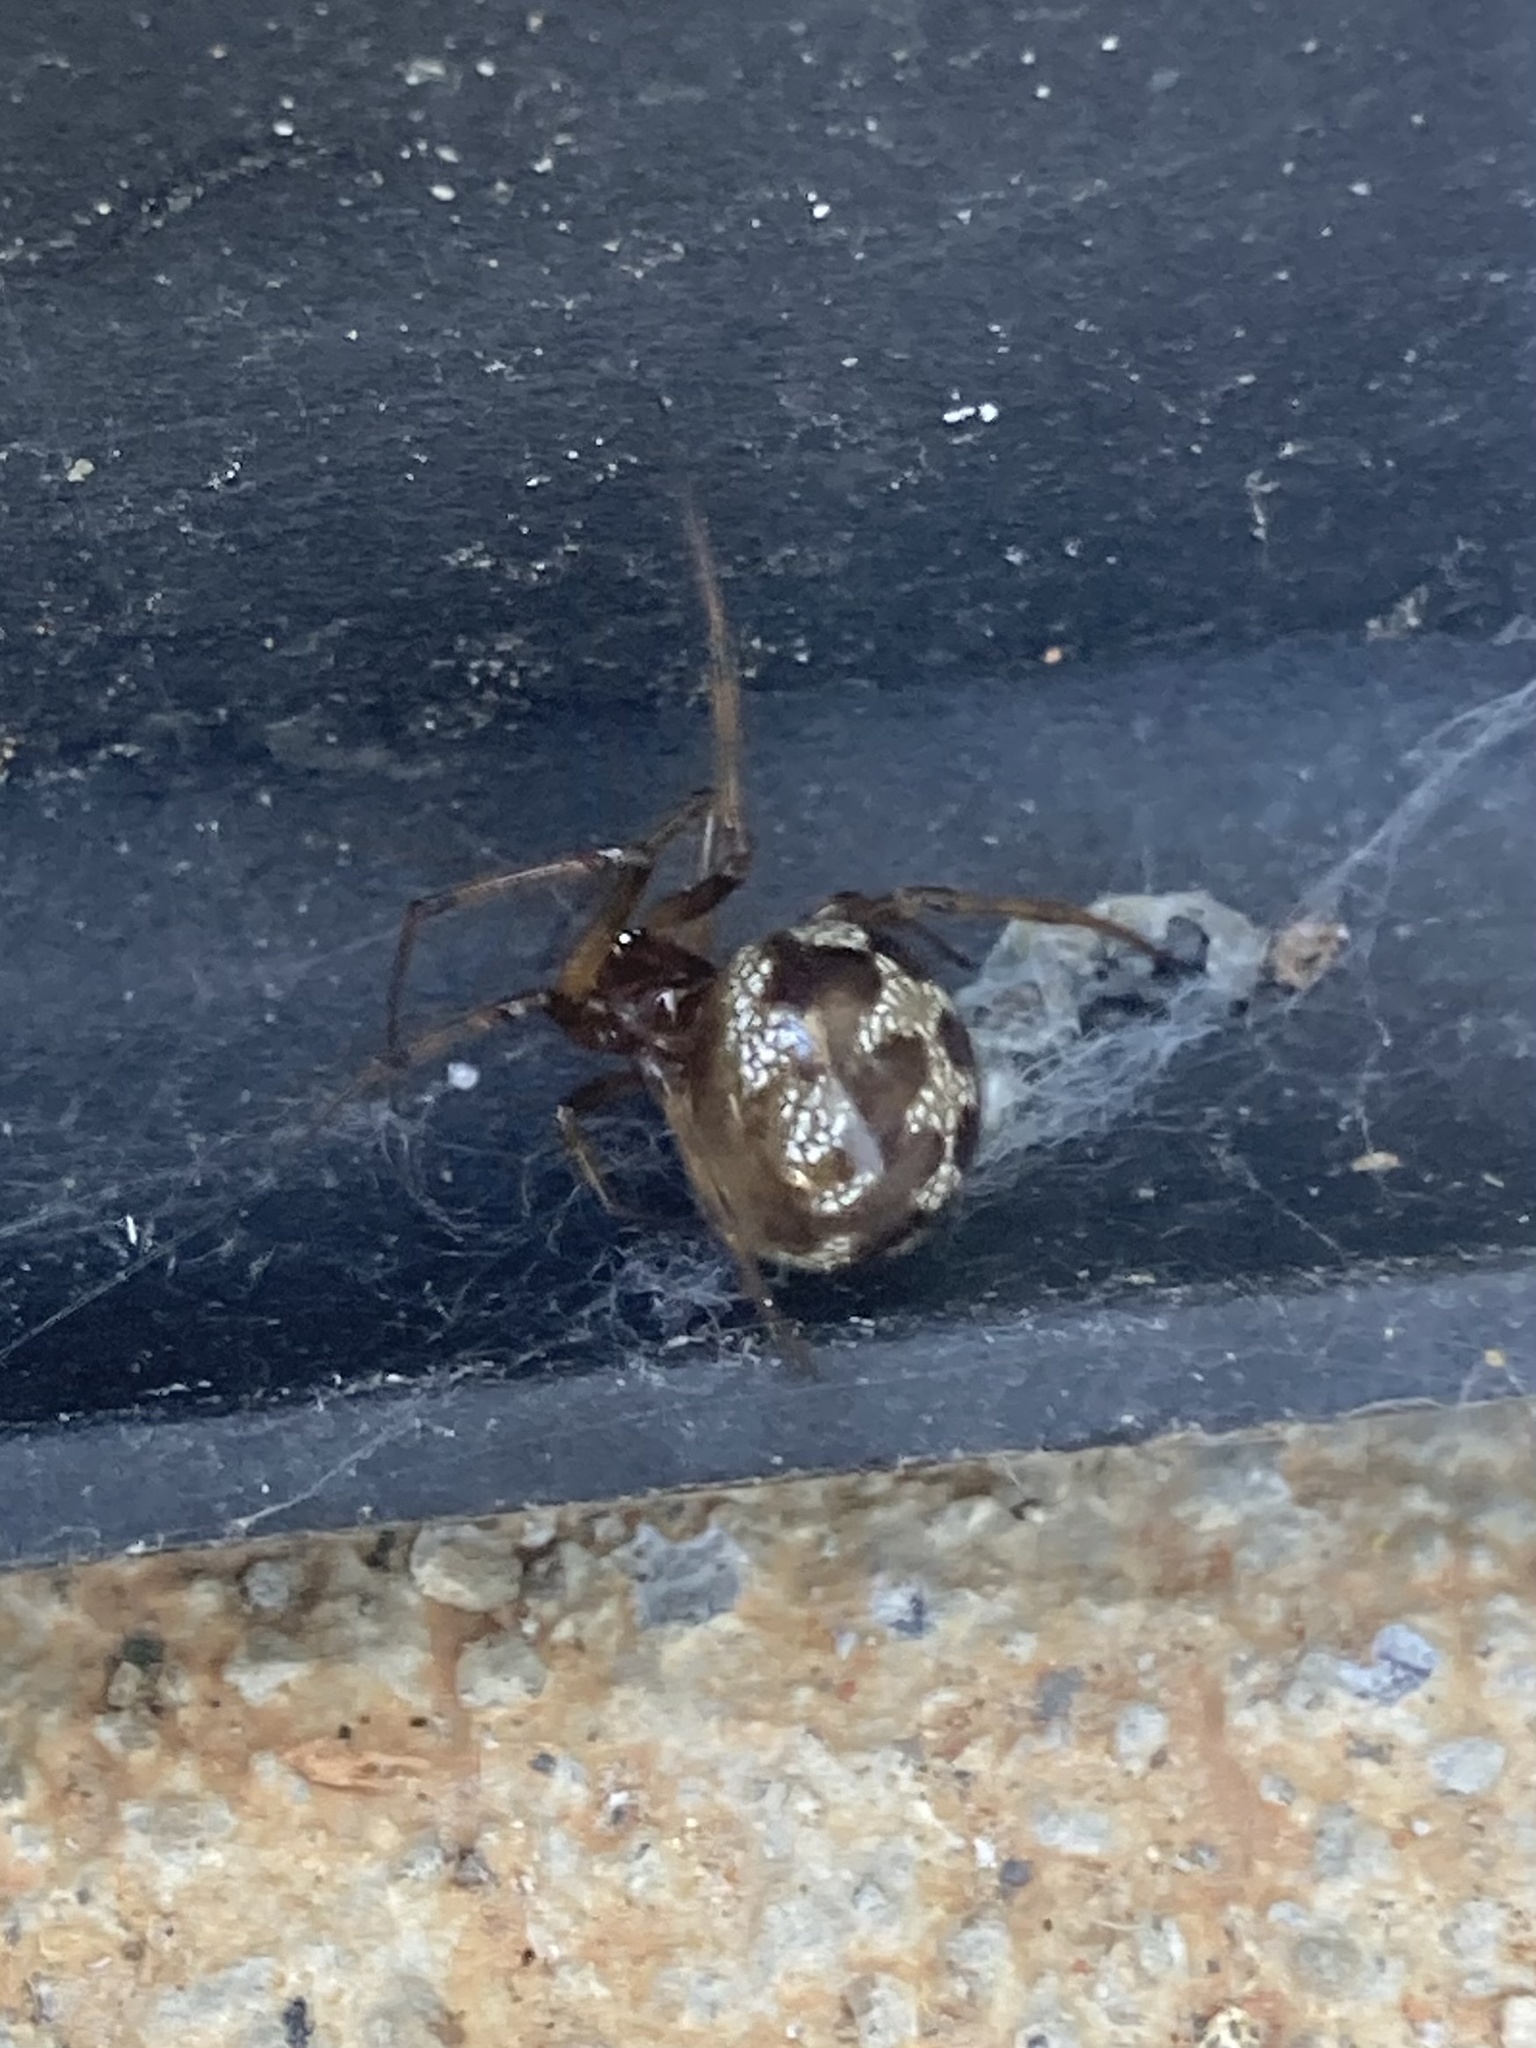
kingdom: Animalia
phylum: Arthropoda
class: Arachnida
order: Araneae
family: Theridiidae
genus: Steatoda
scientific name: Steatoda triangulosa
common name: Triangulate bud spider
